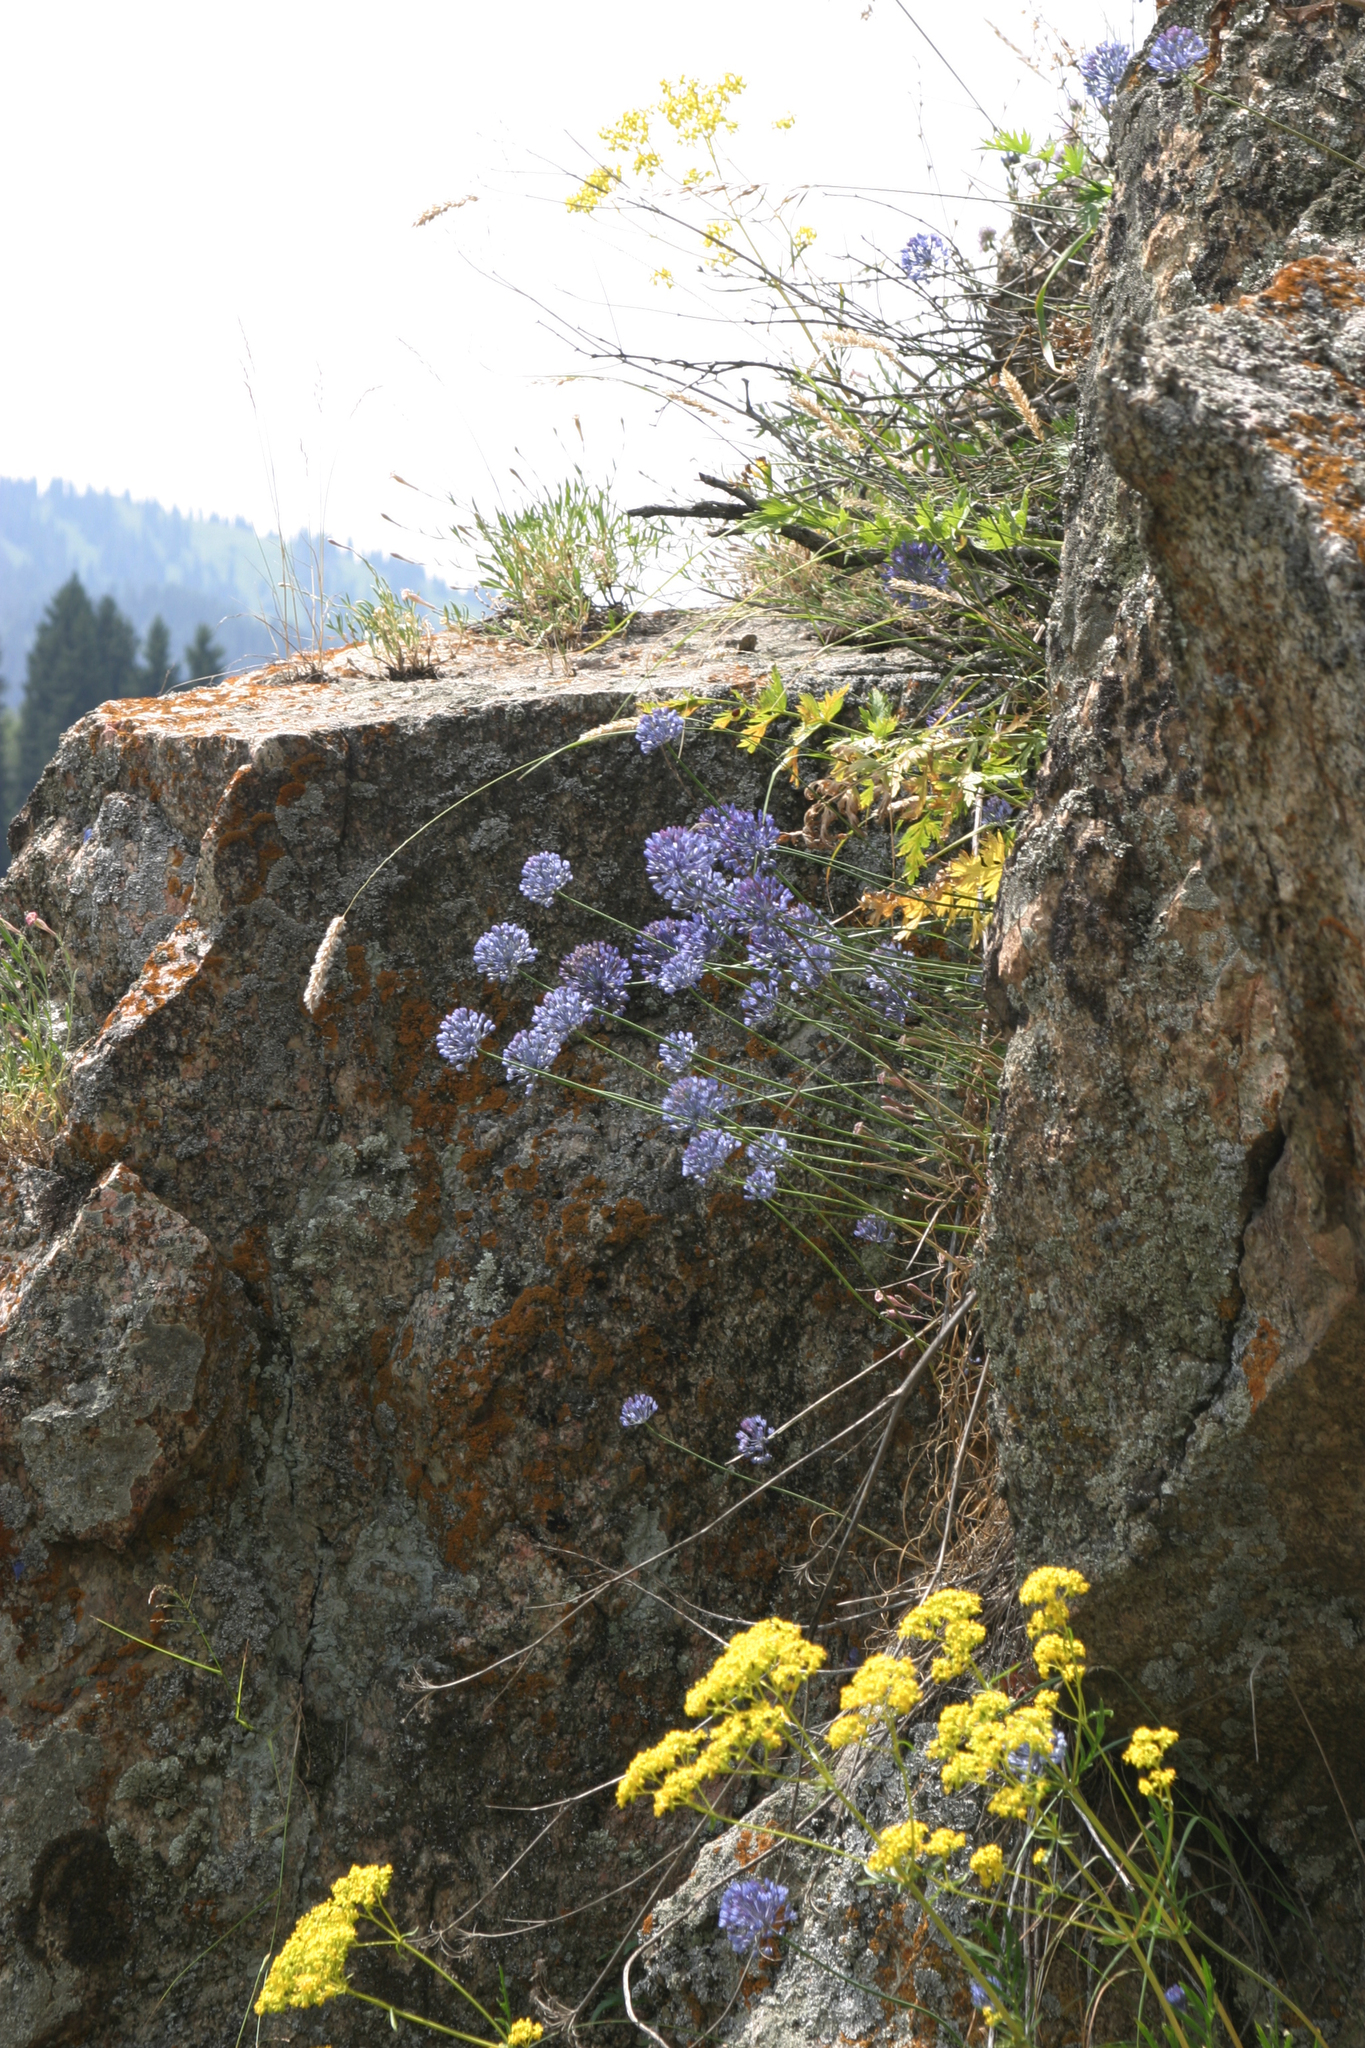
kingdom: Plantae
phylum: Tracheophyta
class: Liliopsida
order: Asparagales
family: Amaryllidaceae
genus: Allium
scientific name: Allium caeruleum
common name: Blue-of-the-heavens
